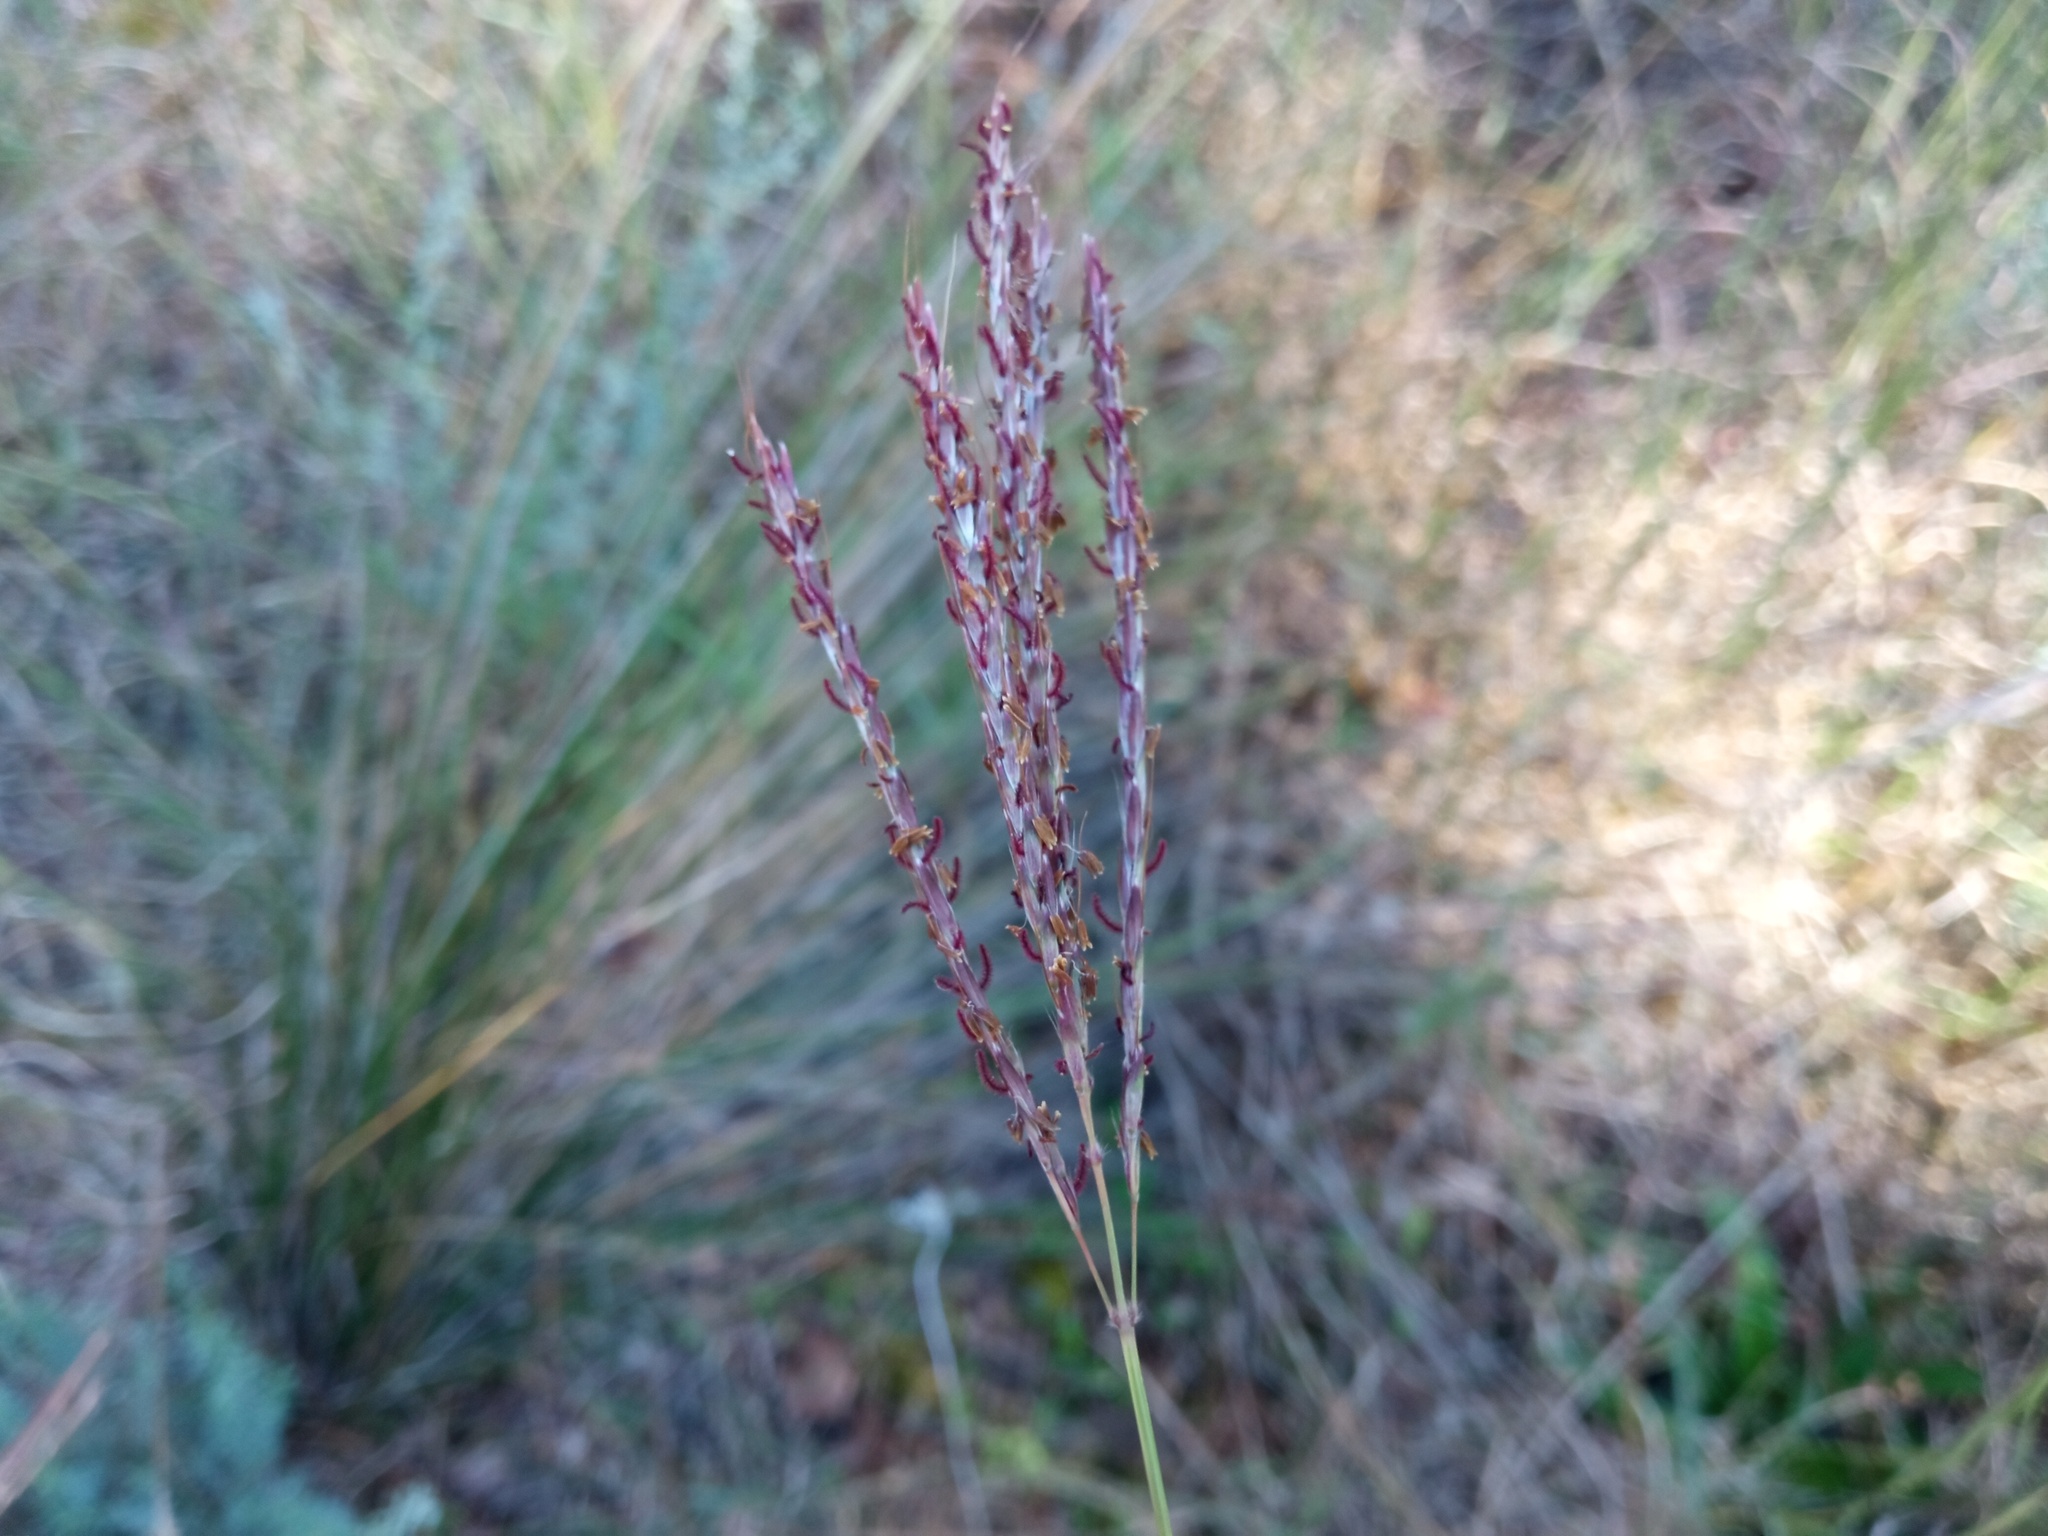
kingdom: Plantae
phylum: Tracheophyta
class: Liliopsida
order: Poales
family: Poaceae
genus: Bothriochloa
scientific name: Bothriochloa ischaemum
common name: Yellow bluestem
